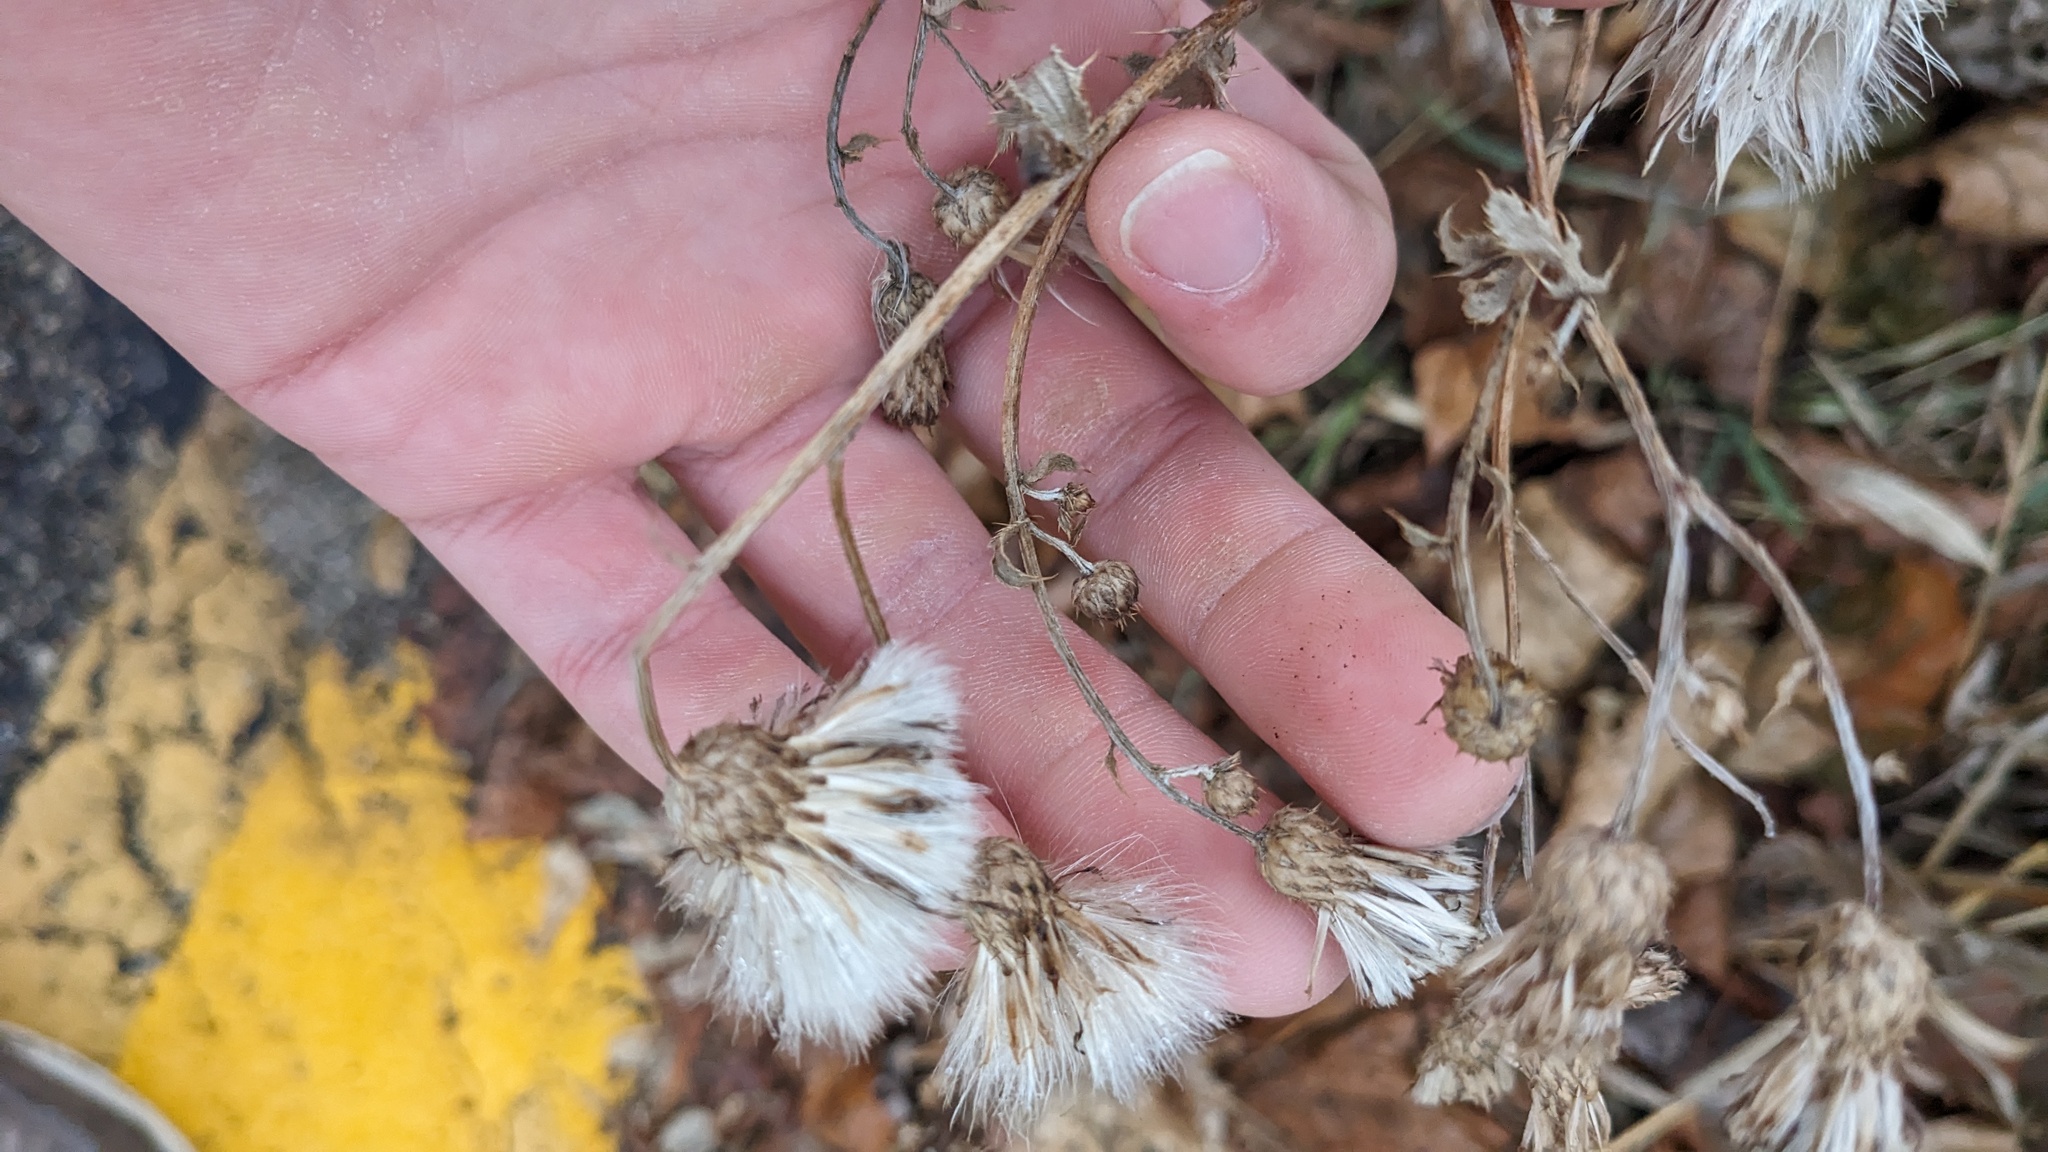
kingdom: Plantae
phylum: Tracheophyta
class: Magnoliopsida
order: Asterales
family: Asteraceae
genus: Cirsium
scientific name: Cirsium arvense
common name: Creeping thistle
